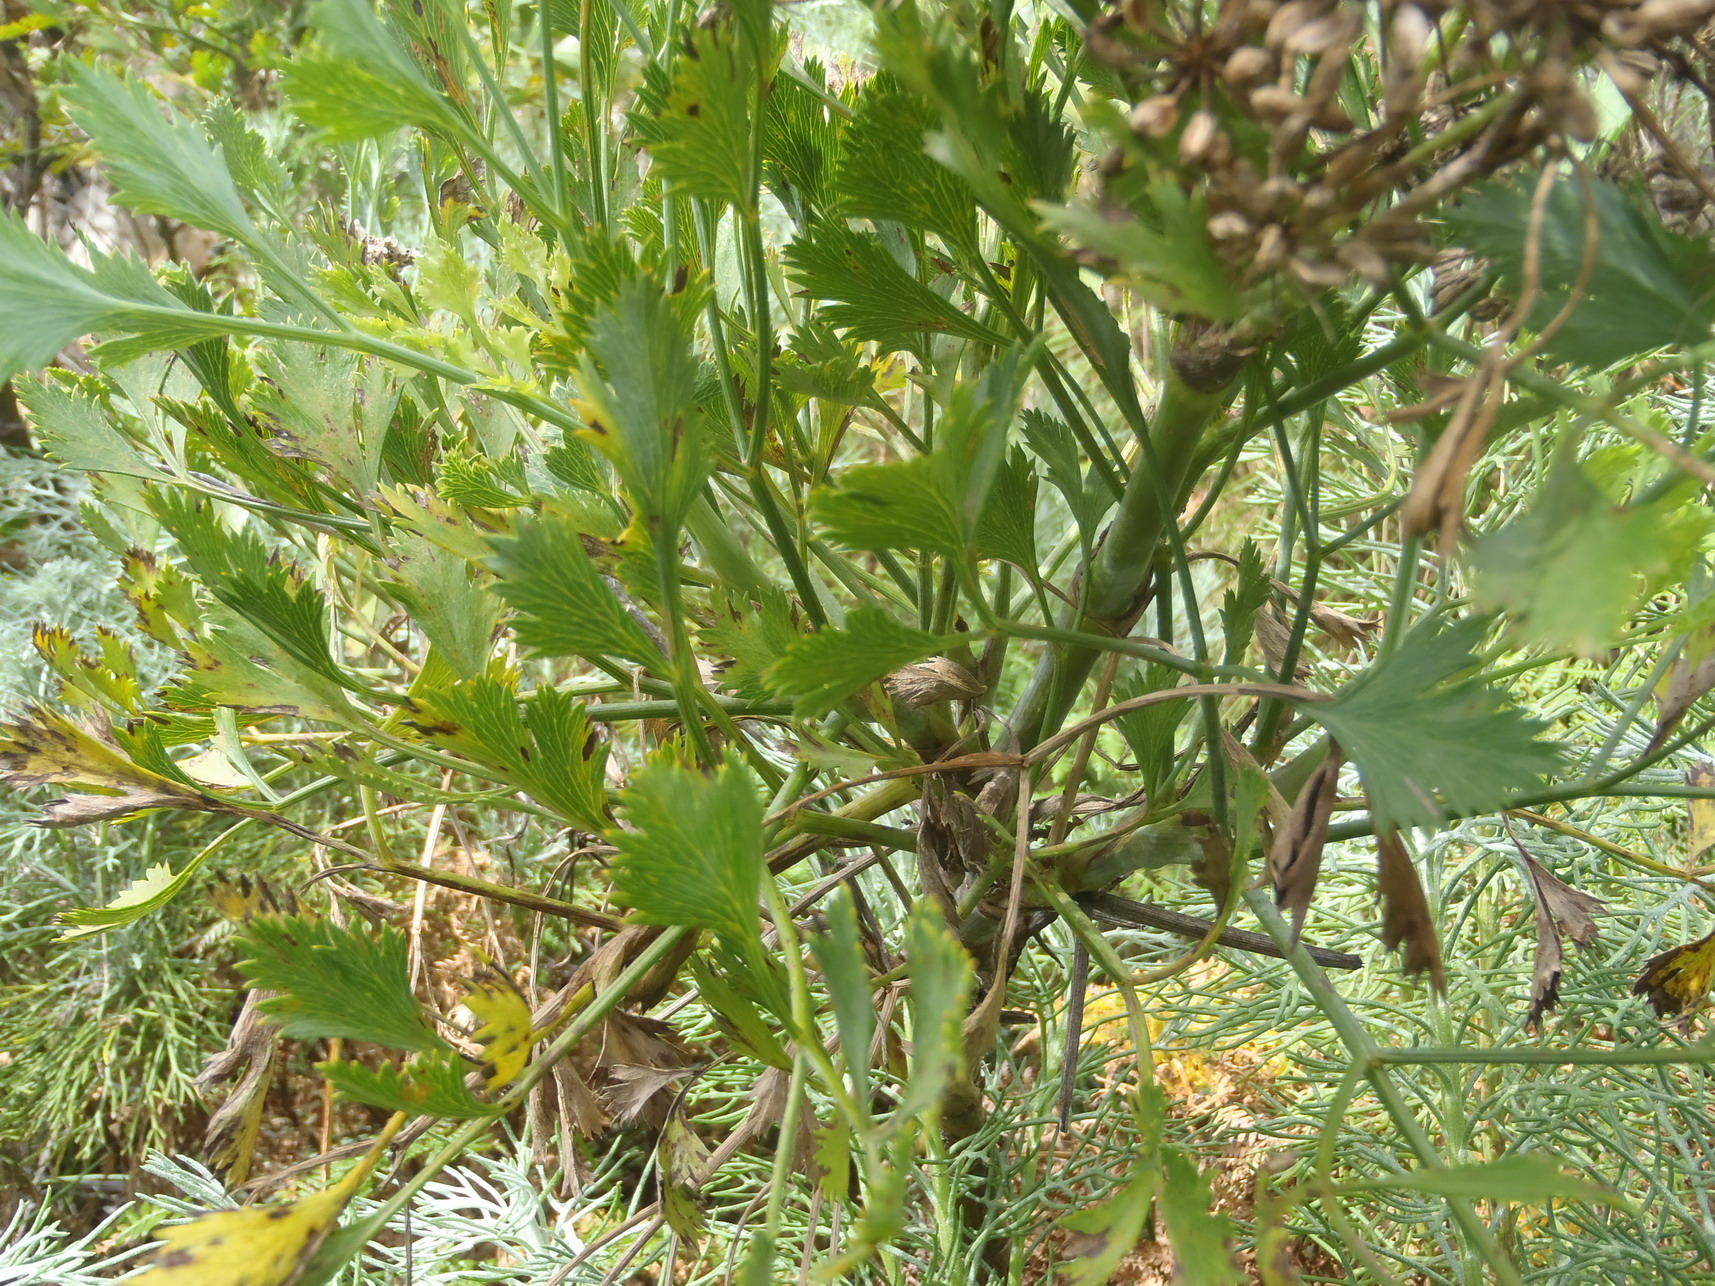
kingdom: Plantae
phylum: Tracheophyta
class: Magnoliopsida
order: Apiales
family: Apiaceae
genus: Notobubon
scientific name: Notobubon galbanum
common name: Blisterbush
